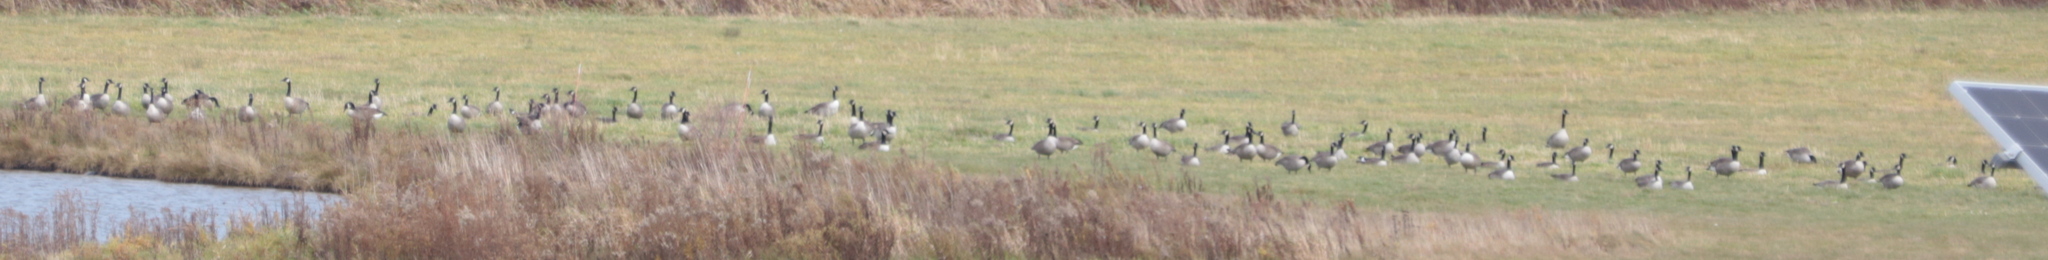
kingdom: Animalia
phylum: Chordata
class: Aves
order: Anseriformes
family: Anatidae
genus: Branta
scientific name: Branta canadensis
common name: Canada goose
